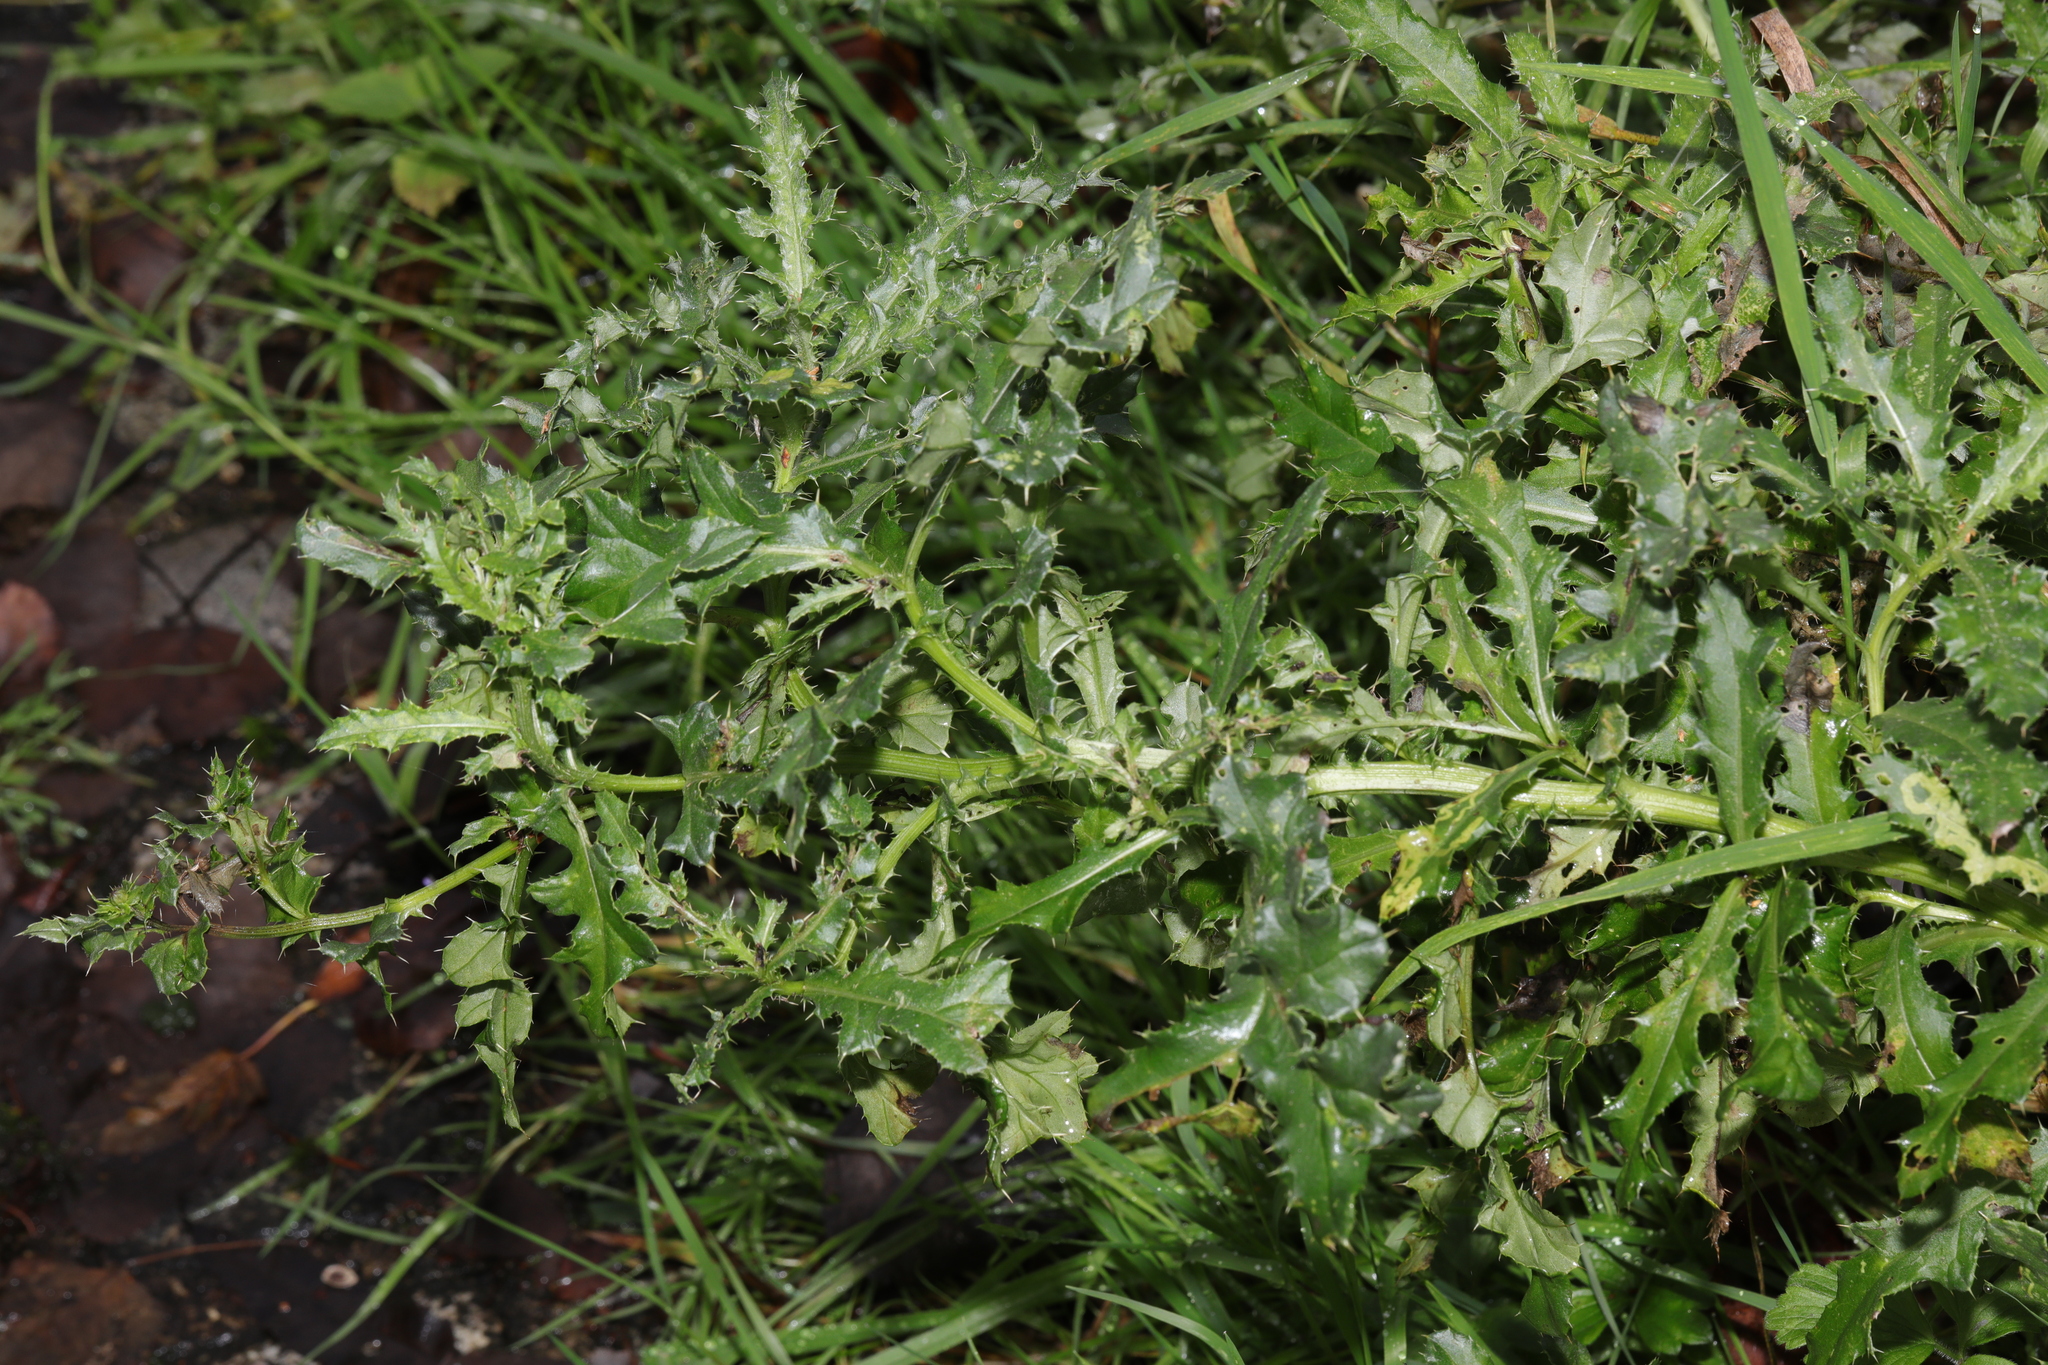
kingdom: Plantae
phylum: Tracheophyta
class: Magnoliopsida
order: Asterales
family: Asteraceae
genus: Cirsium
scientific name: Cirsium arvense
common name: Creeping thistle
